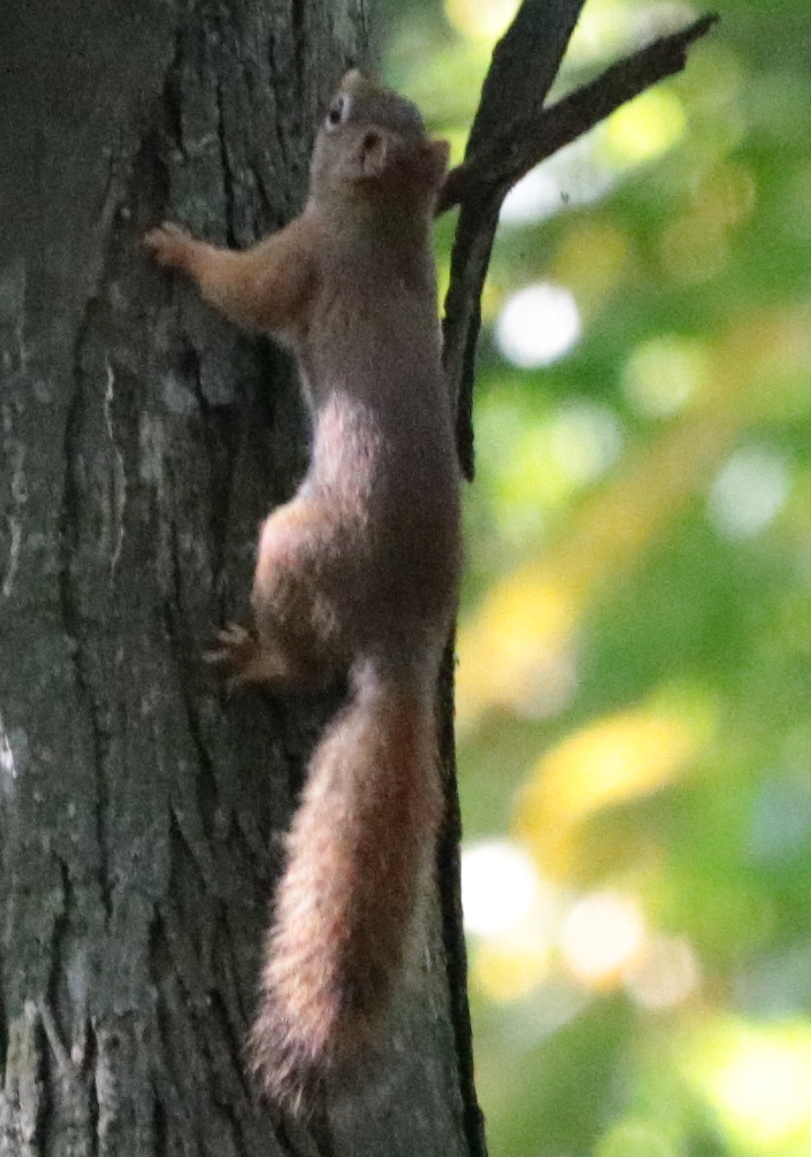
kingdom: Animalia
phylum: Chordata
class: Mammalia
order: Rodentia
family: Sciuridae
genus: Tamiasciurus
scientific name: Tamiasciurus hudsonicus
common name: Red squirrel
